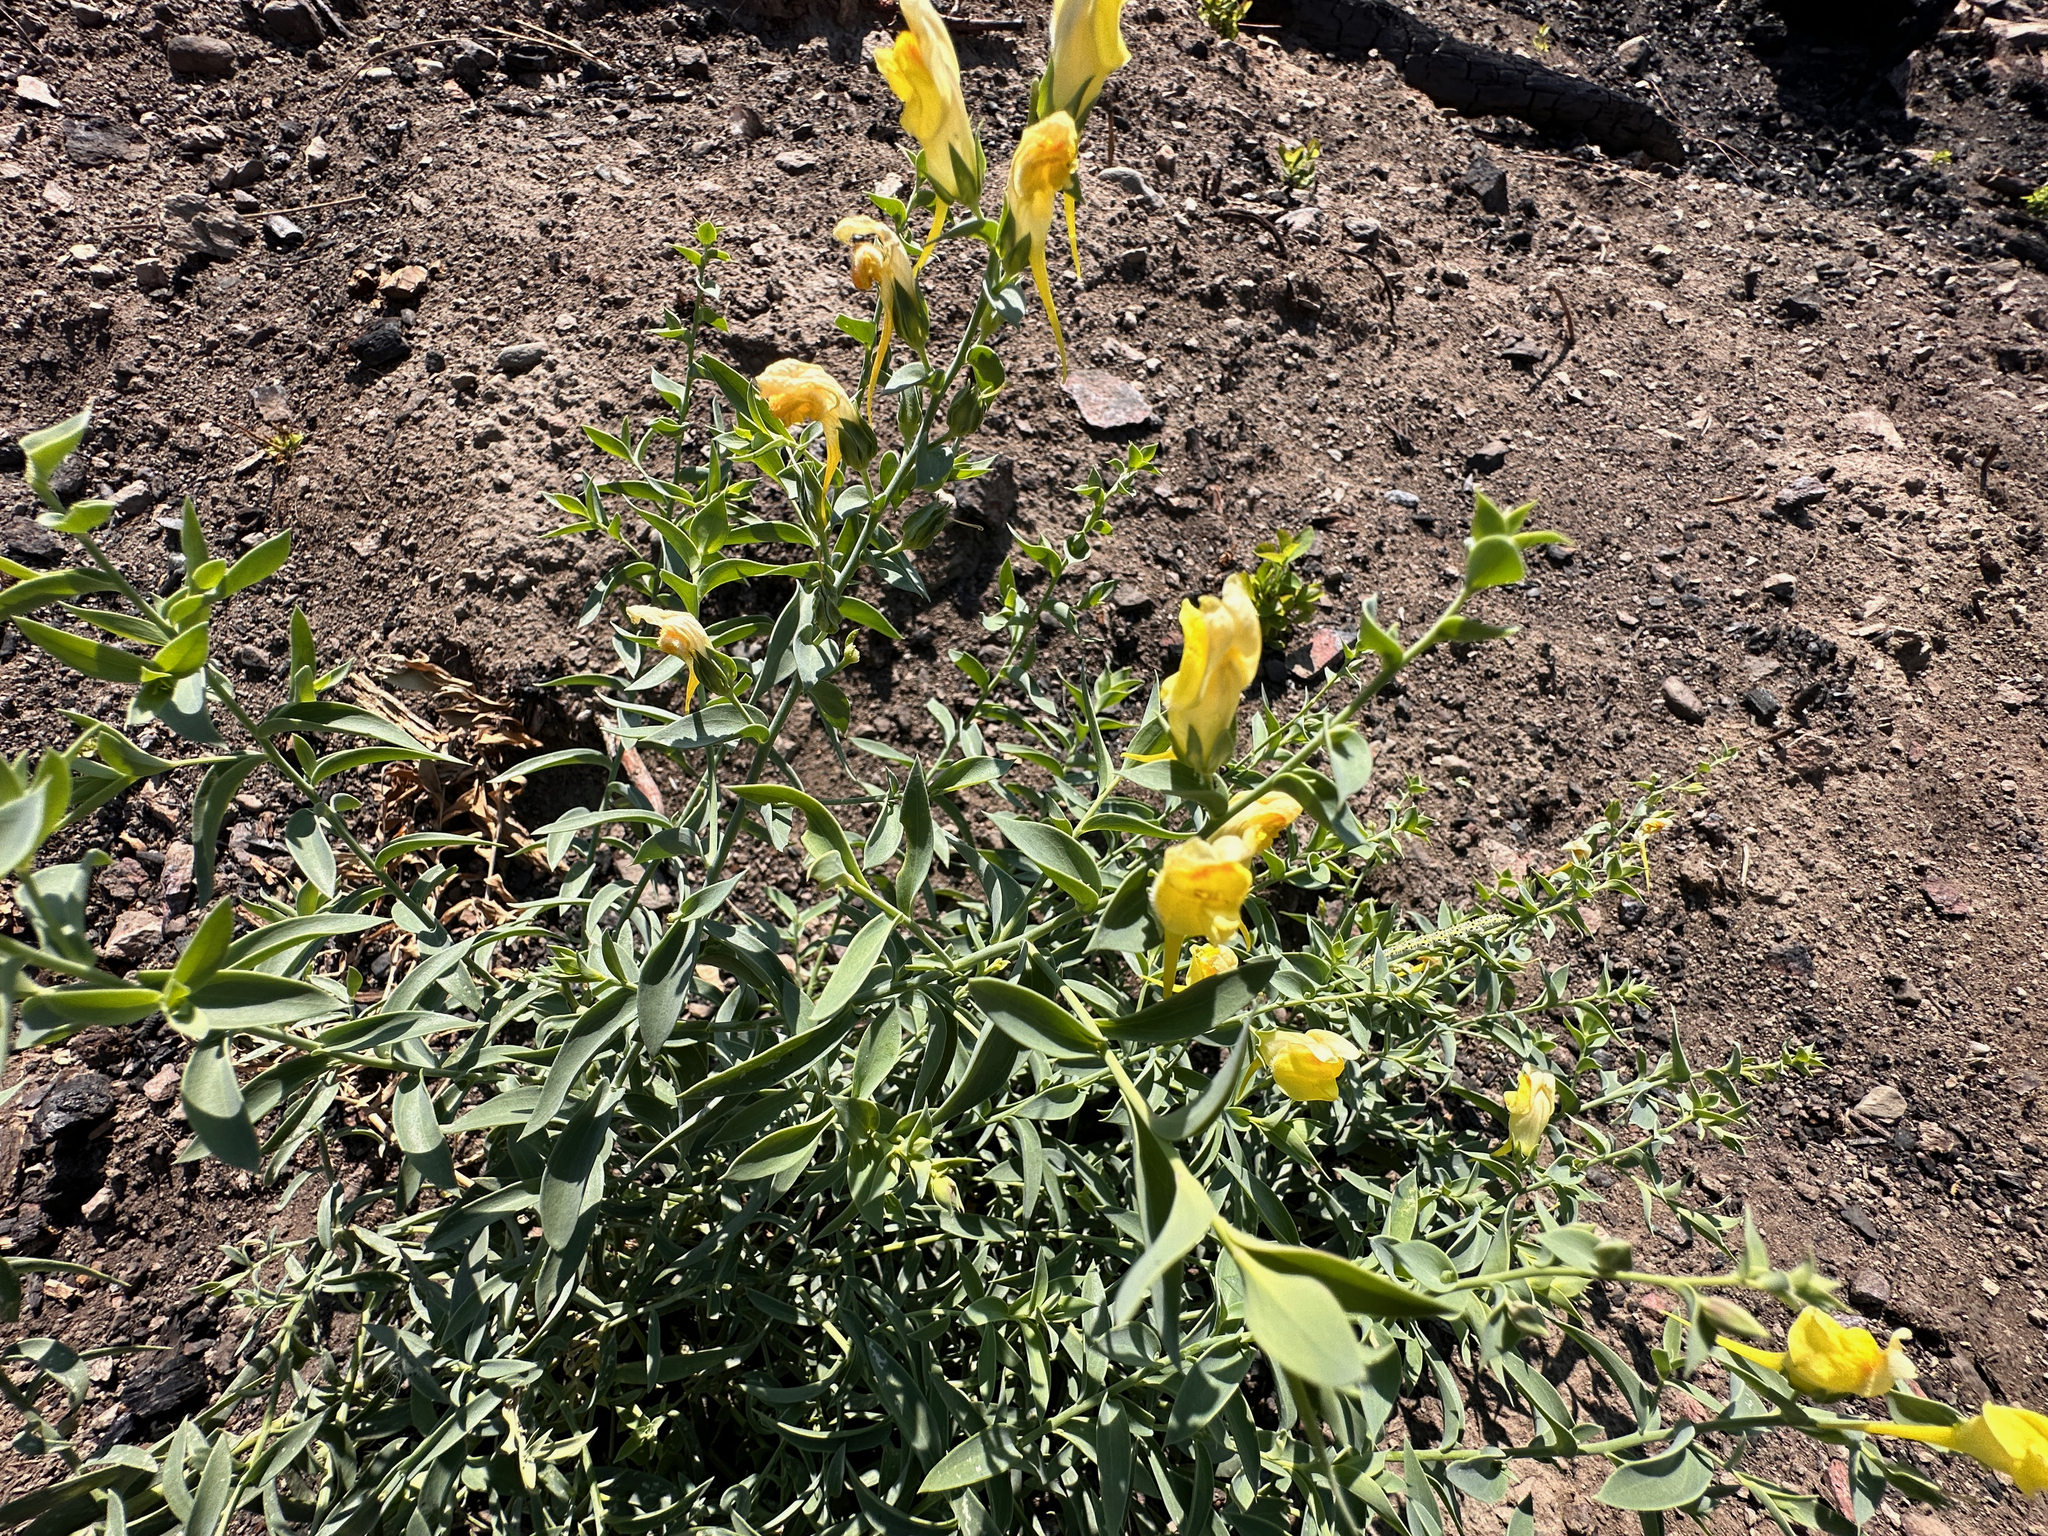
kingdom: Plantae
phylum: Tracheophyta
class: Magnoliopsida
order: Lamiales
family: Plantaginaceae
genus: Linaria
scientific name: Linaria dalmatica
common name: Dalmatian toadflax
